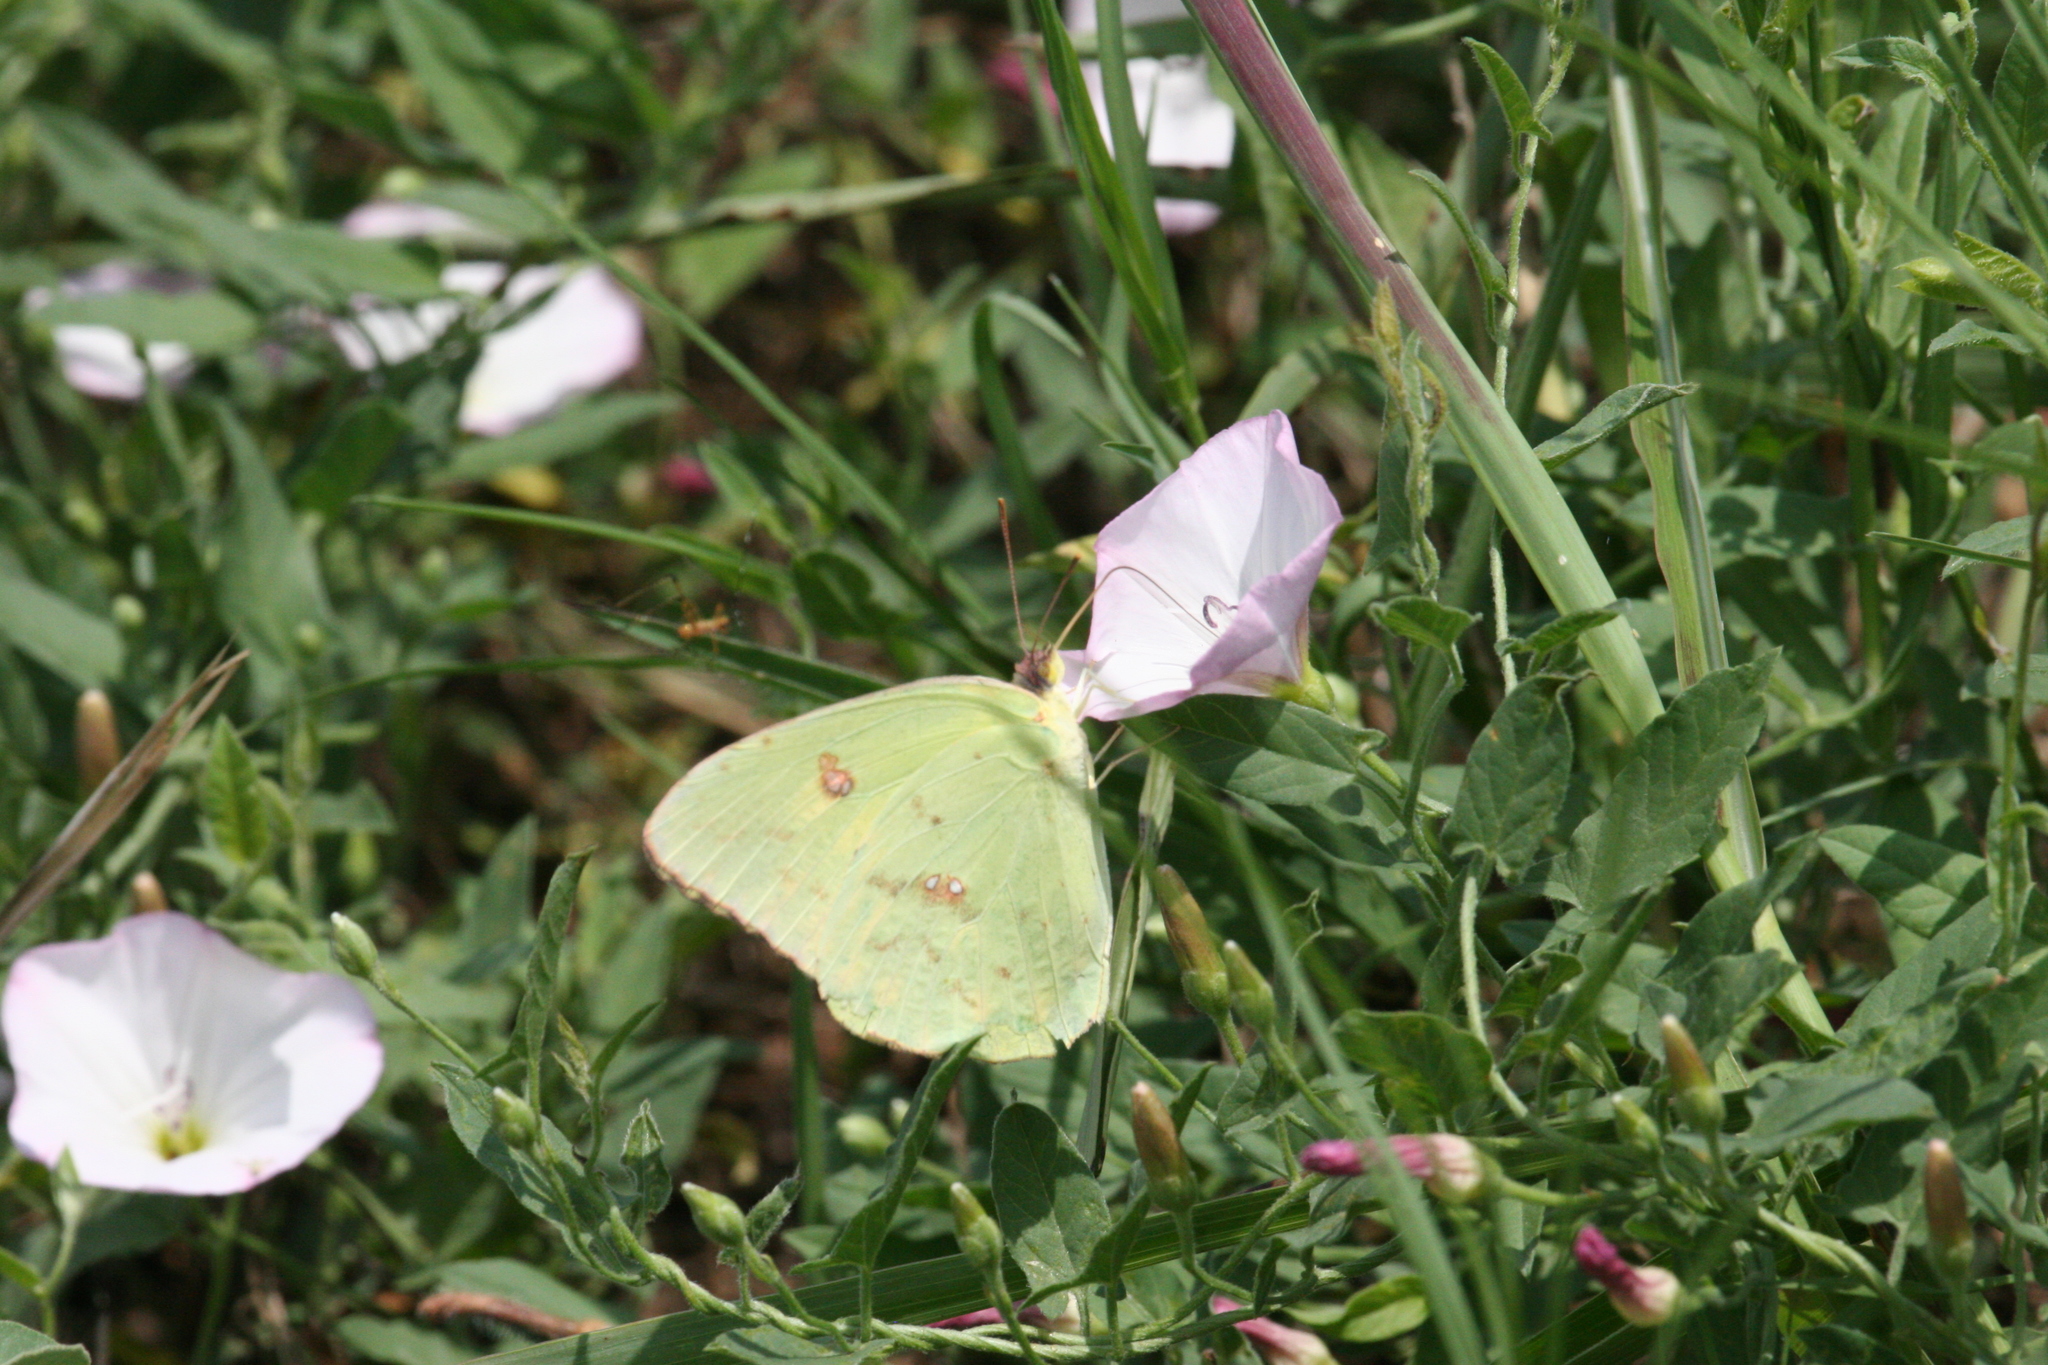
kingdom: Animalia
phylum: Arthropoda
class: Insecta
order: Lepidoptera
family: Pieridae
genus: Phoebis
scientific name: Phoebis sennae
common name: Cloudless sulphur
